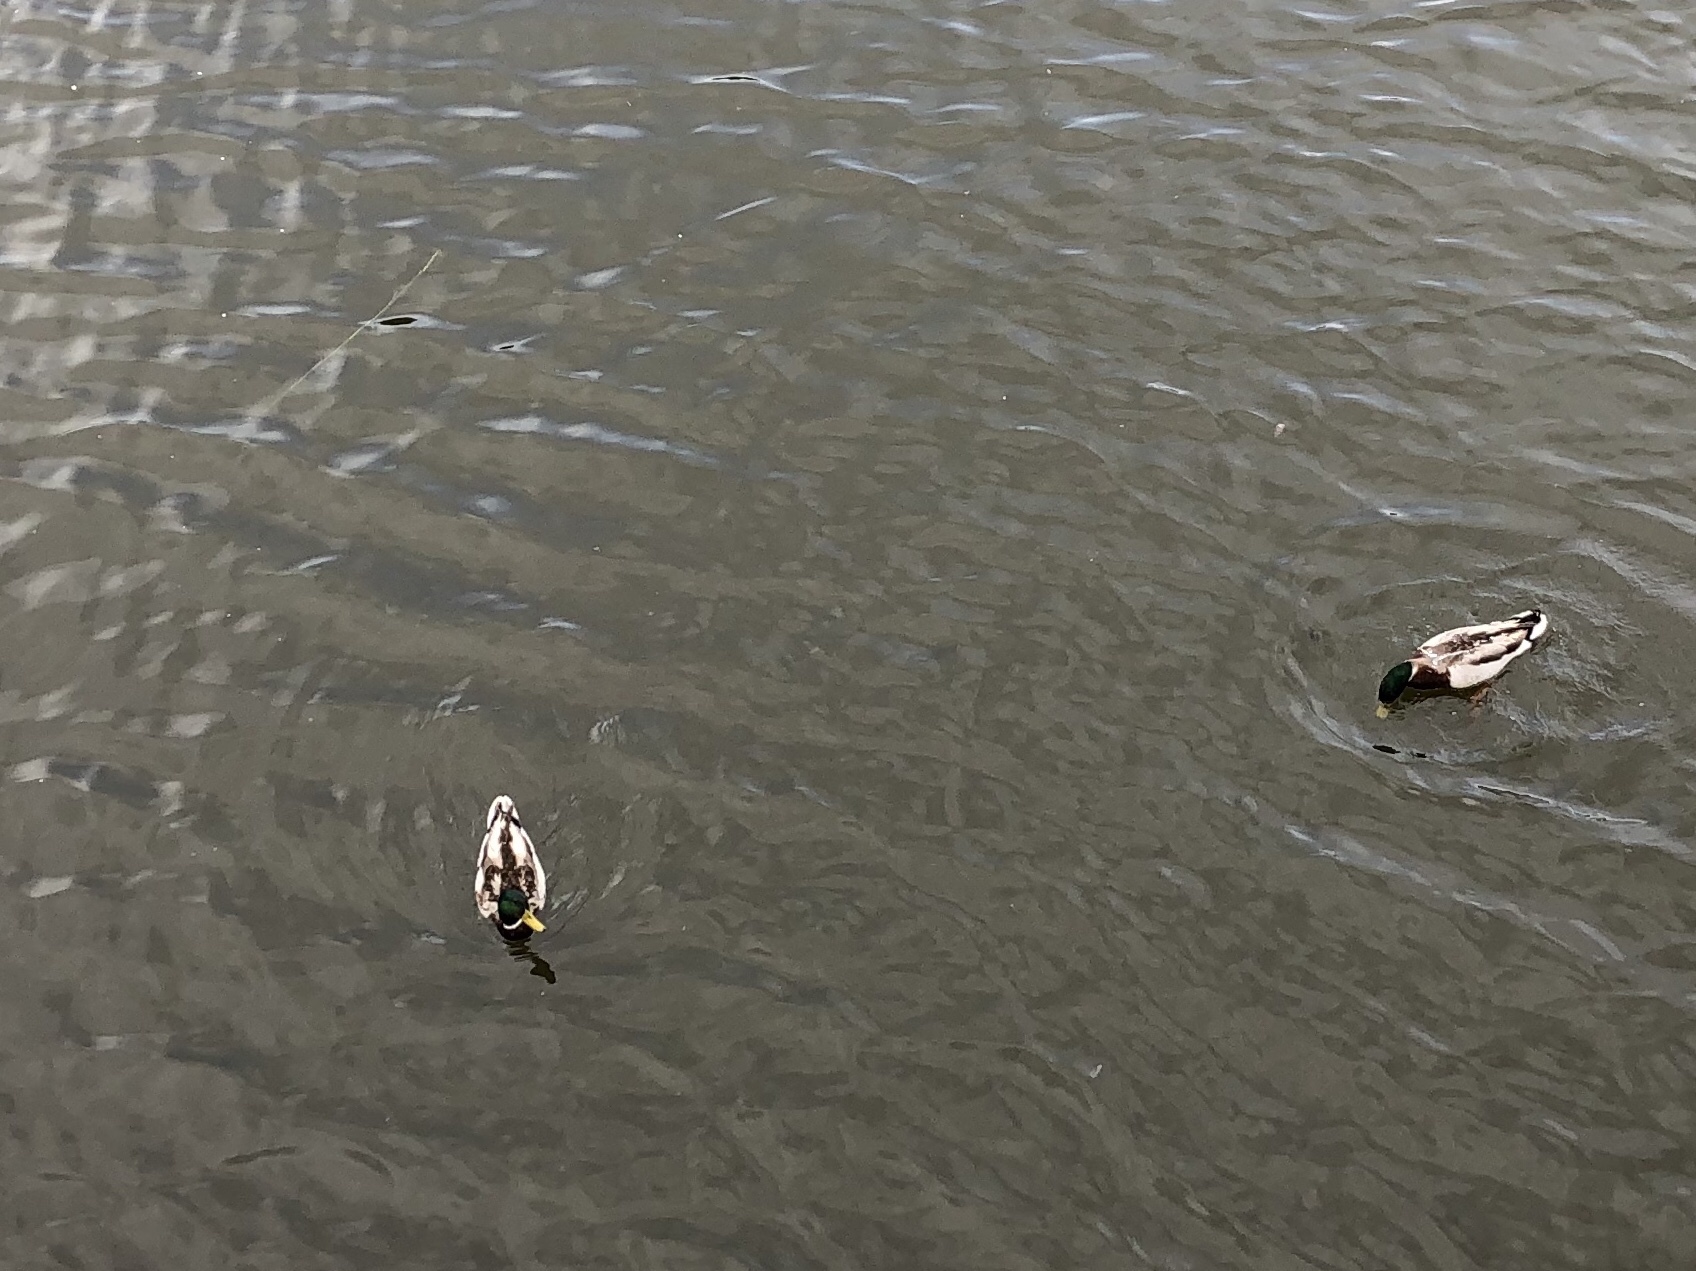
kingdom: Animalia
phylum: Chordata
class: Aves
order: Anseriformes
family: Anatidae
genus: Anas
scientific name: Anas platyrhynchos
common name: Mallard
